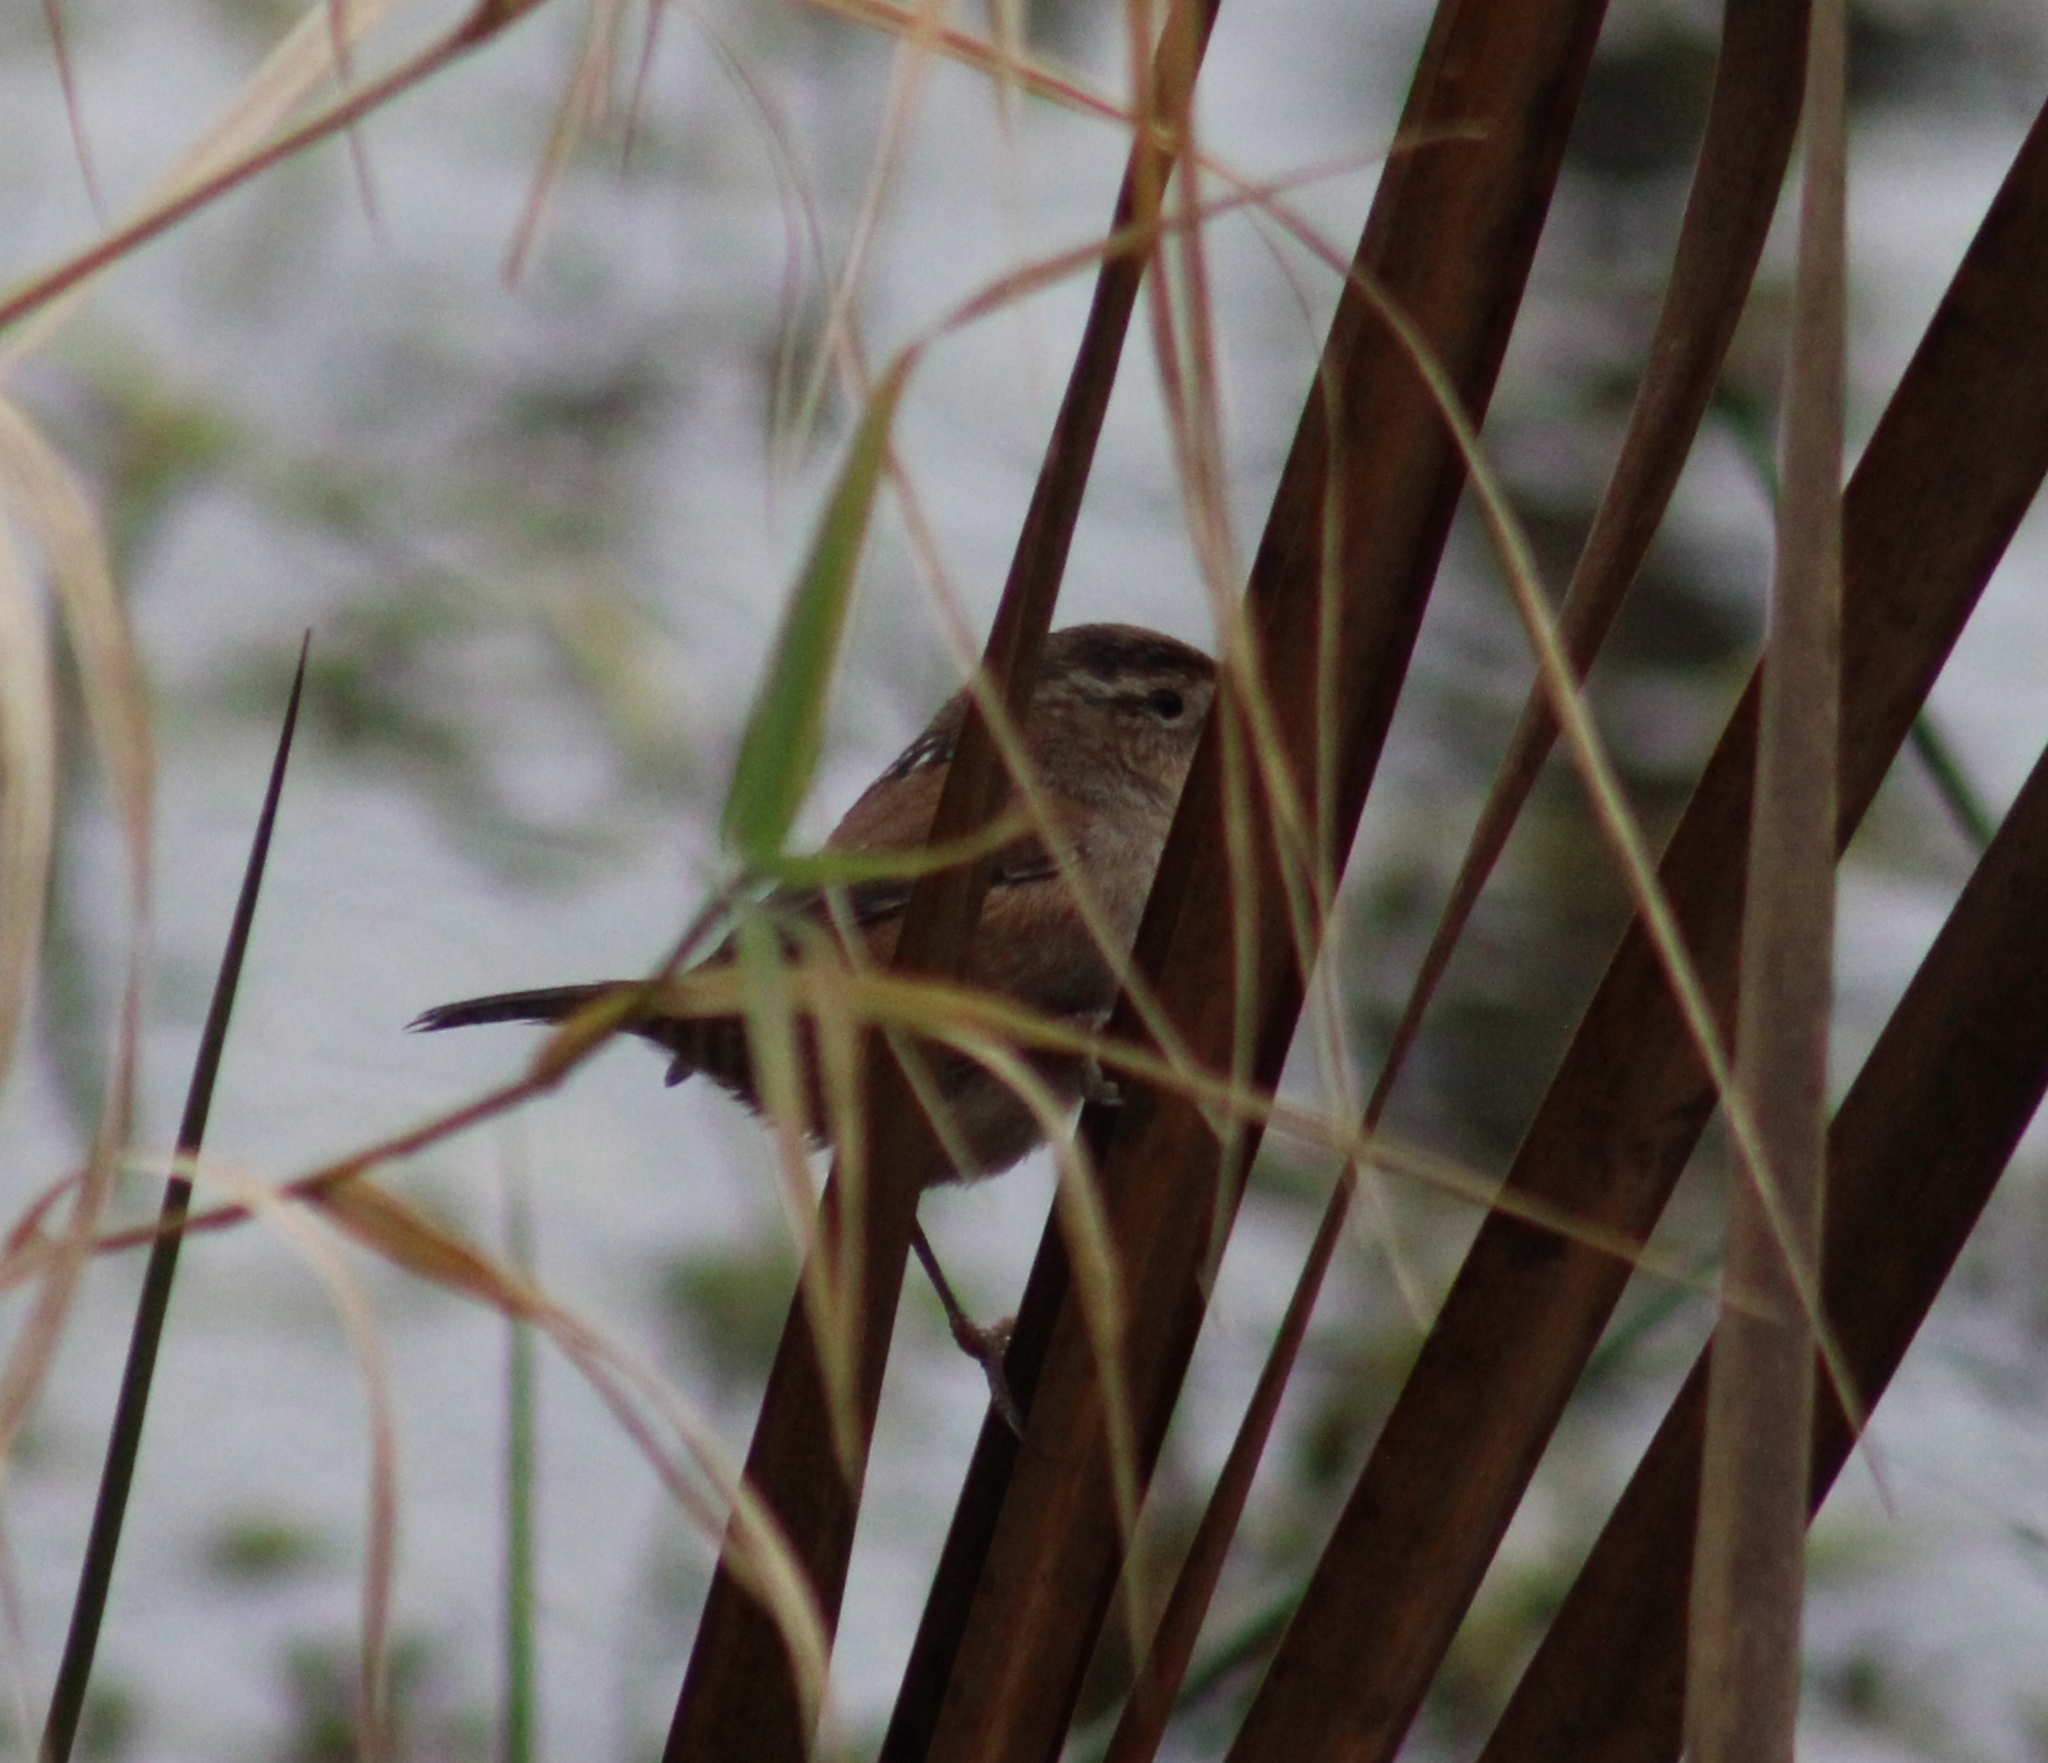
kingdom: Animalia
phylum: Chordata
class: Aves
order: Passeriformes
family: Troglodytidae
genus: Cistothorus
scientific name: Cistothorus palustris
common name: Marsh wren
